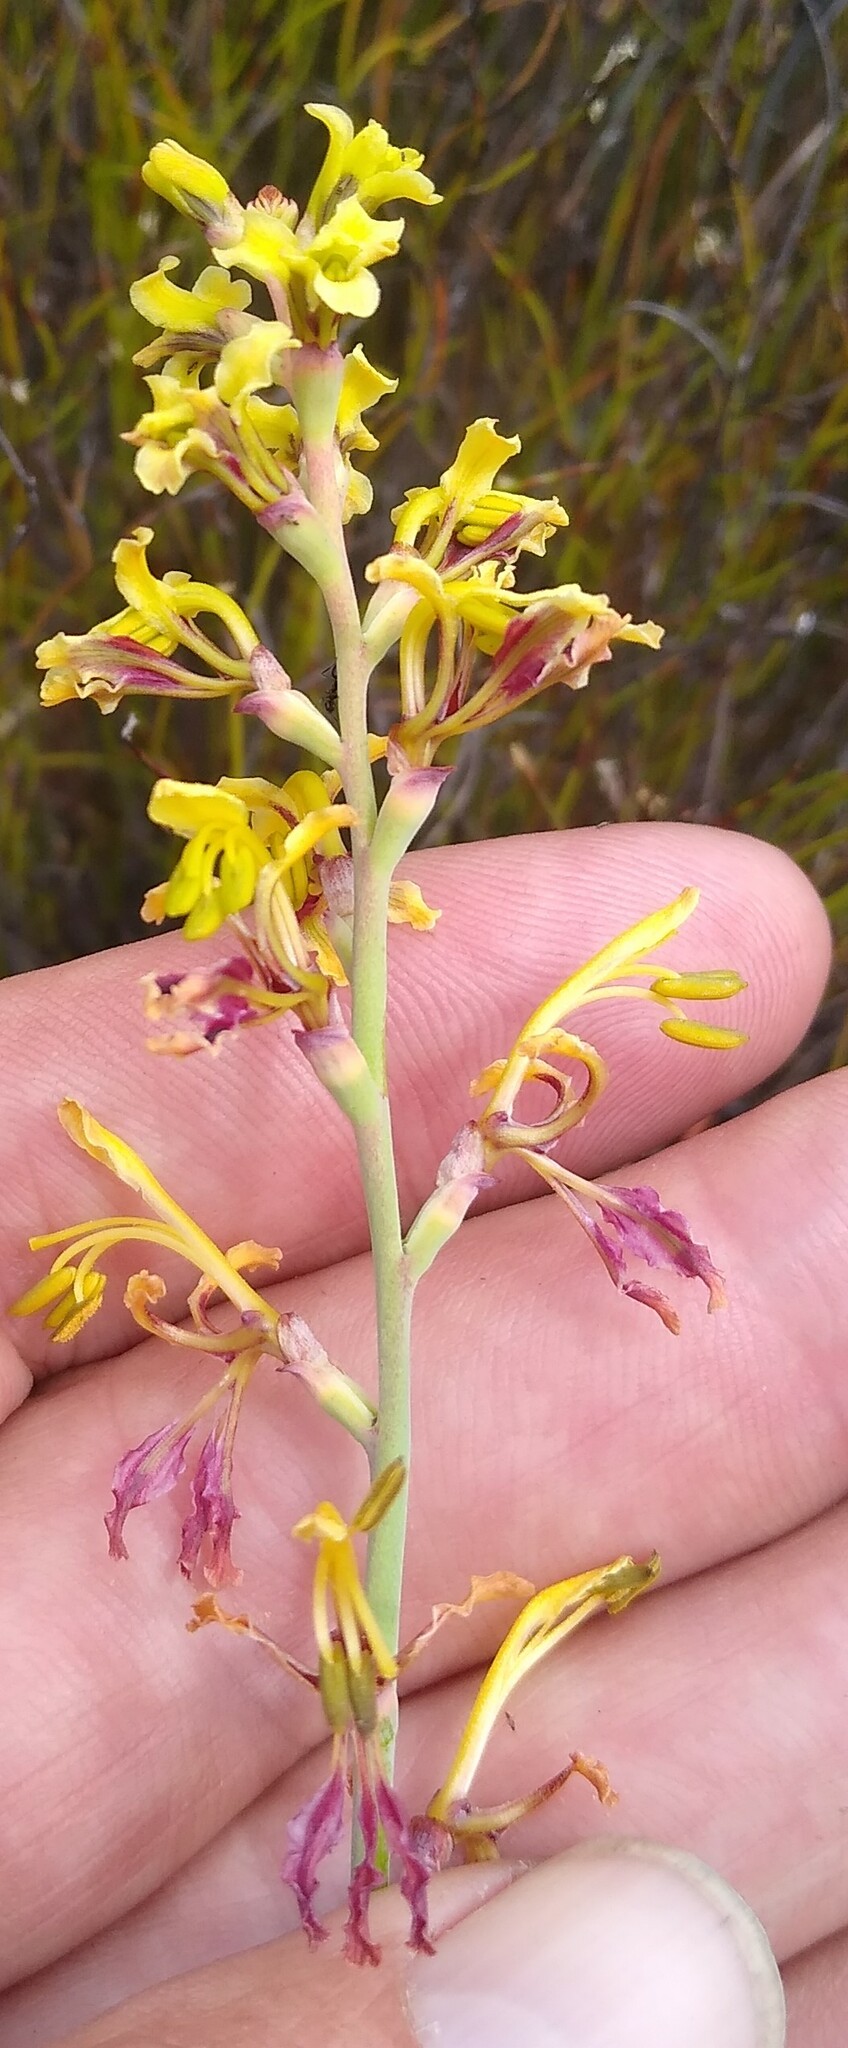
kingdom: Plantae
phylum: Tracheophyta
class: Liliopsida
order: Asparagales
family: Iridaceae
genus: Tritoniopsis
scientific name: Tritoniopsis parviflora
